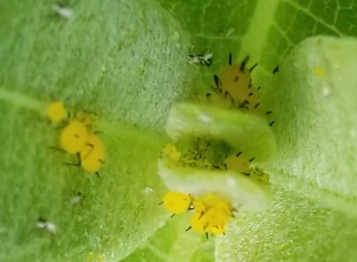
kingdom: Animalia
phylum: Arthropoda
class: Insecta
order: Hemiptera
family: Aphididae
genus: Aphis
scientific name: Aphis nerii
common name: Oleander aphid
